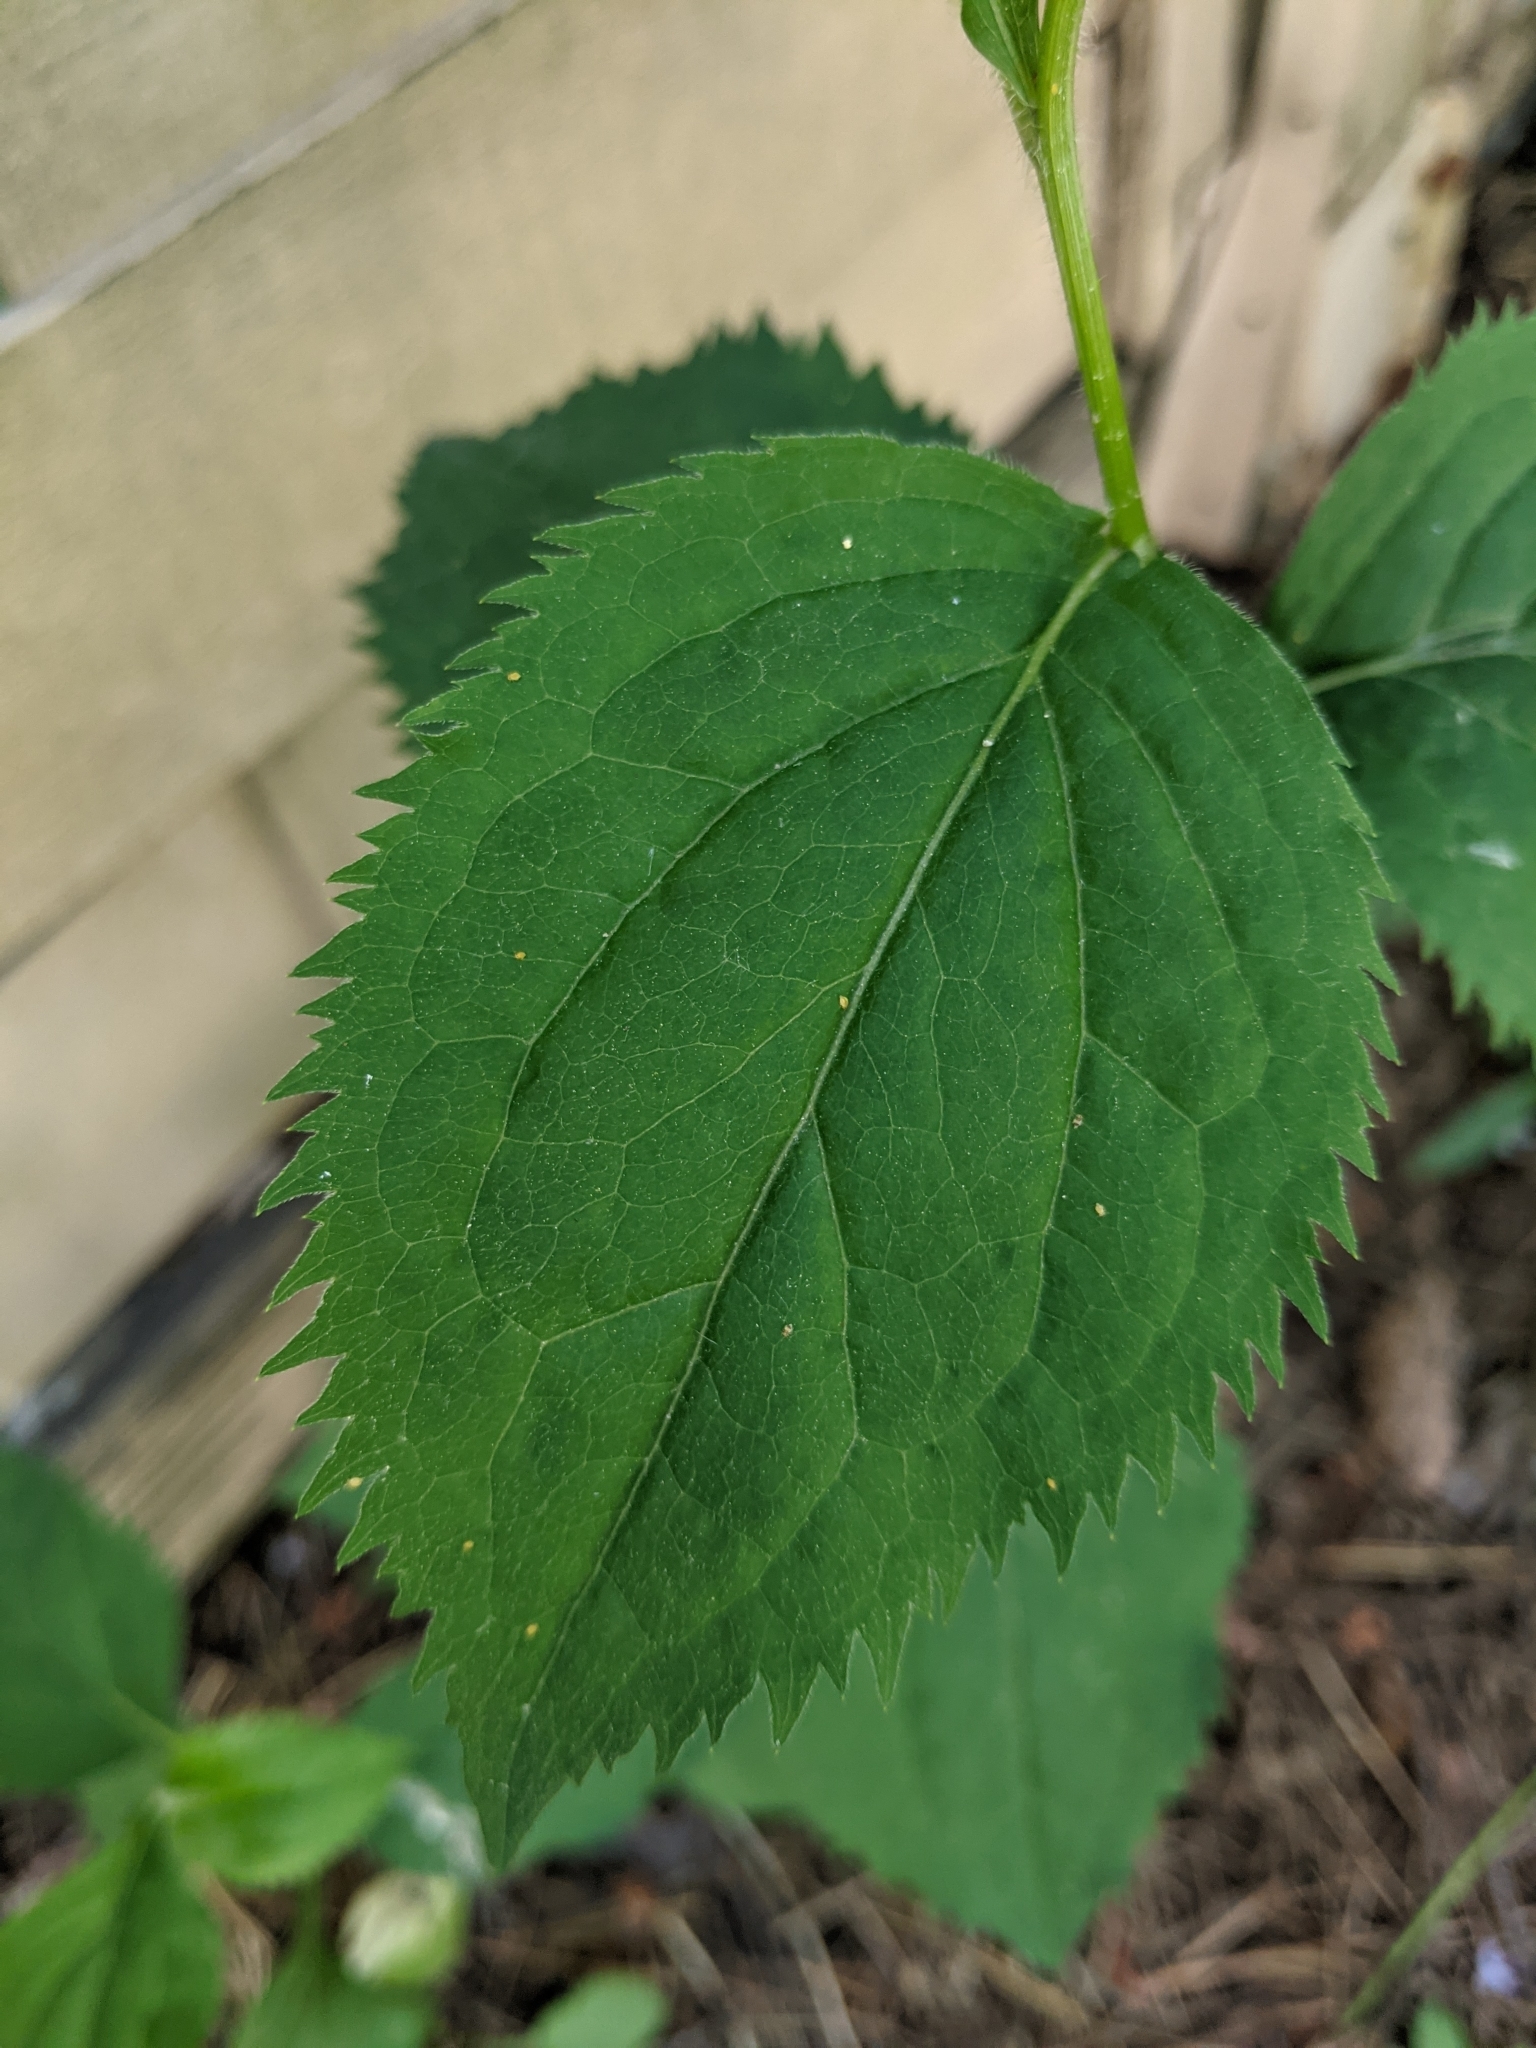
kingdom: Plantae
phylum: Tracheophyta
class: Magnoliopsida
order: Asterales
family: Asteraceae
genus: Solidago
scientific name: Solidago flexicaulis
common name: Zig-zag goldenrod
